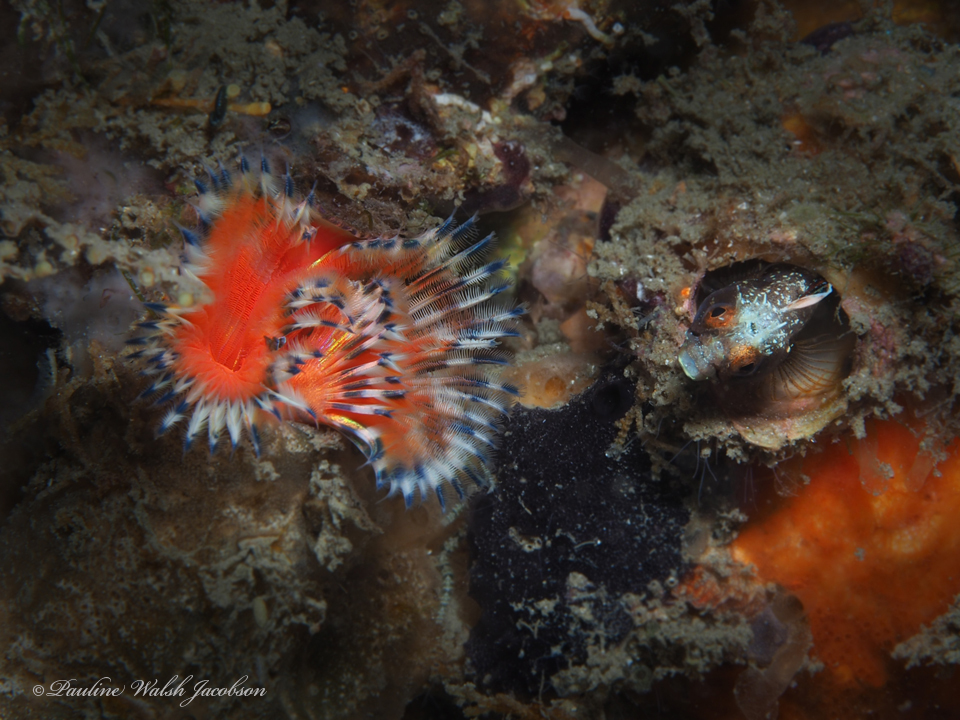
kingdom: Animalia
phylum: Annelida
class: Polychaeta
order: Sabellida
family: Serpulidae
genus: Pomatostegus
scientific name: Pomatostegus stellatus
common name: Star tubeworm
